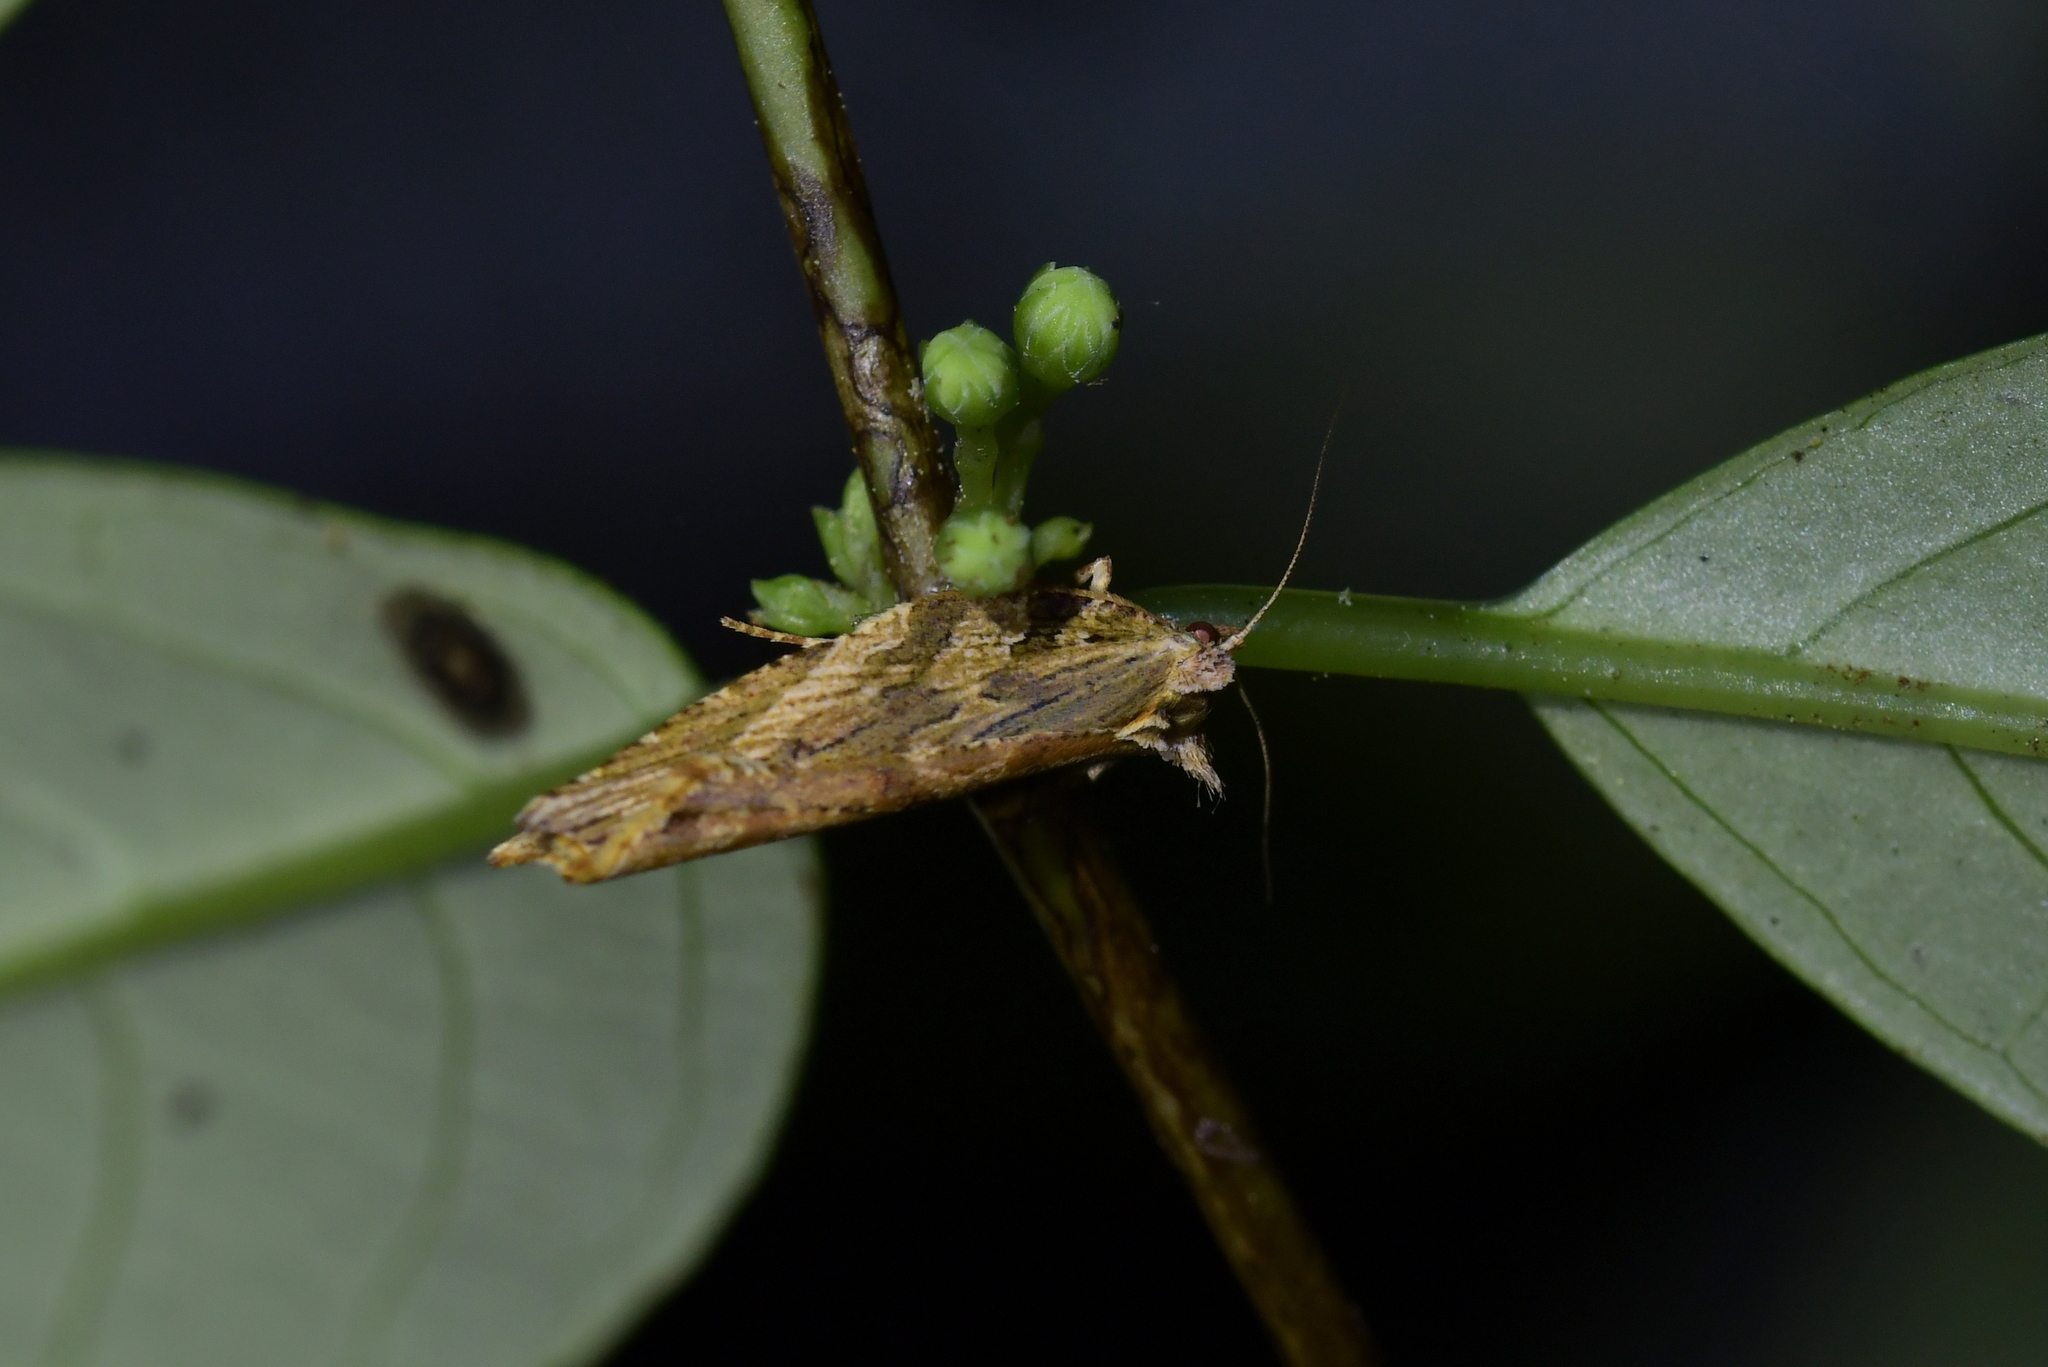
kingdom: Animalia
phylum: Arthropoda
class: Insecta
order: Lepidoptera
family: Tortricidae
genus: Epalxiphora
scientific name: Epalxiphora axenana
